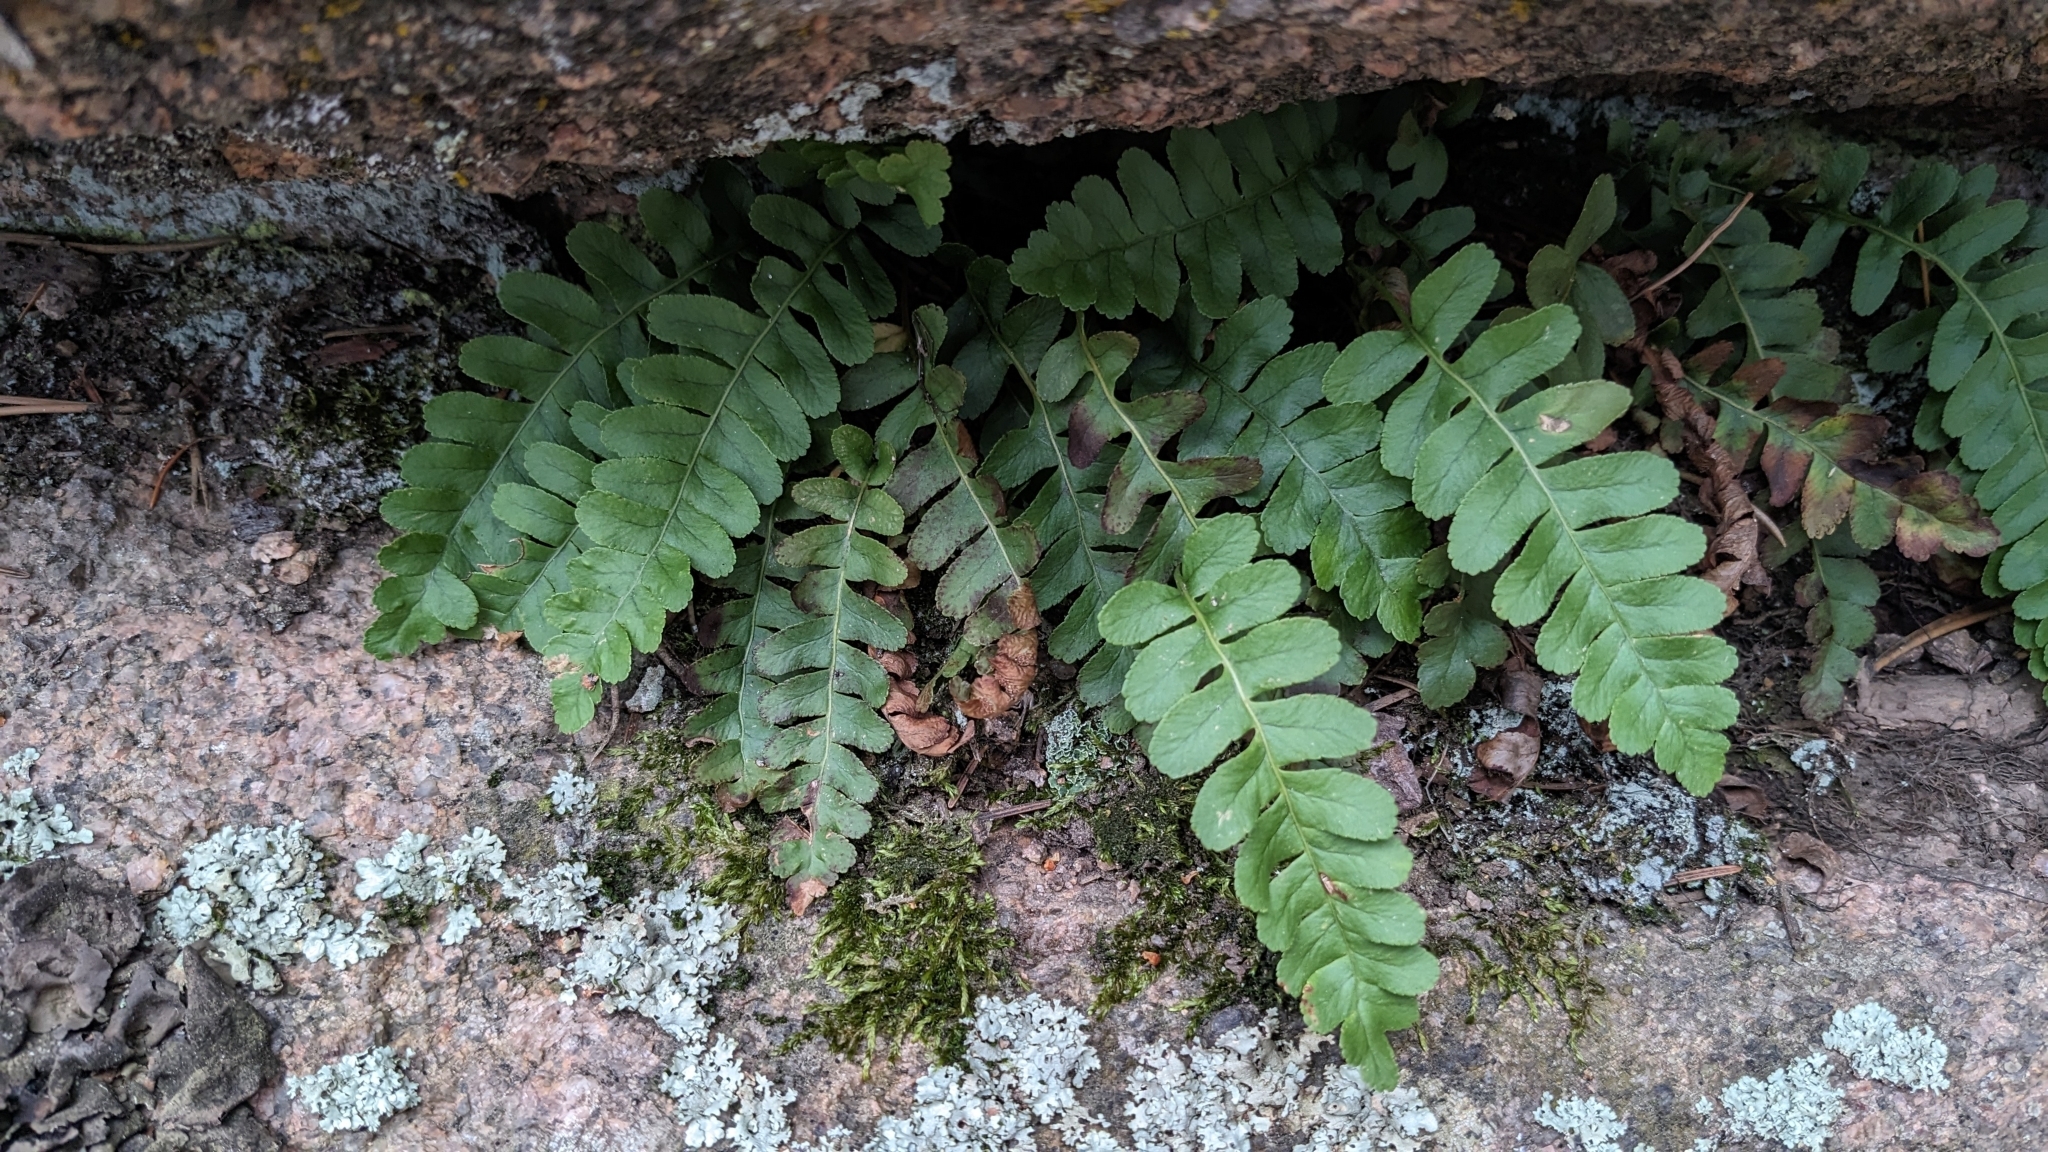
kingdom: Plantae
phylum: Tracheophyta
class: Polypodiopsida
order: Polypodiales
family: Polypodiaceae
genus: Polypodium
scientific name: Polypodium saximontanum
